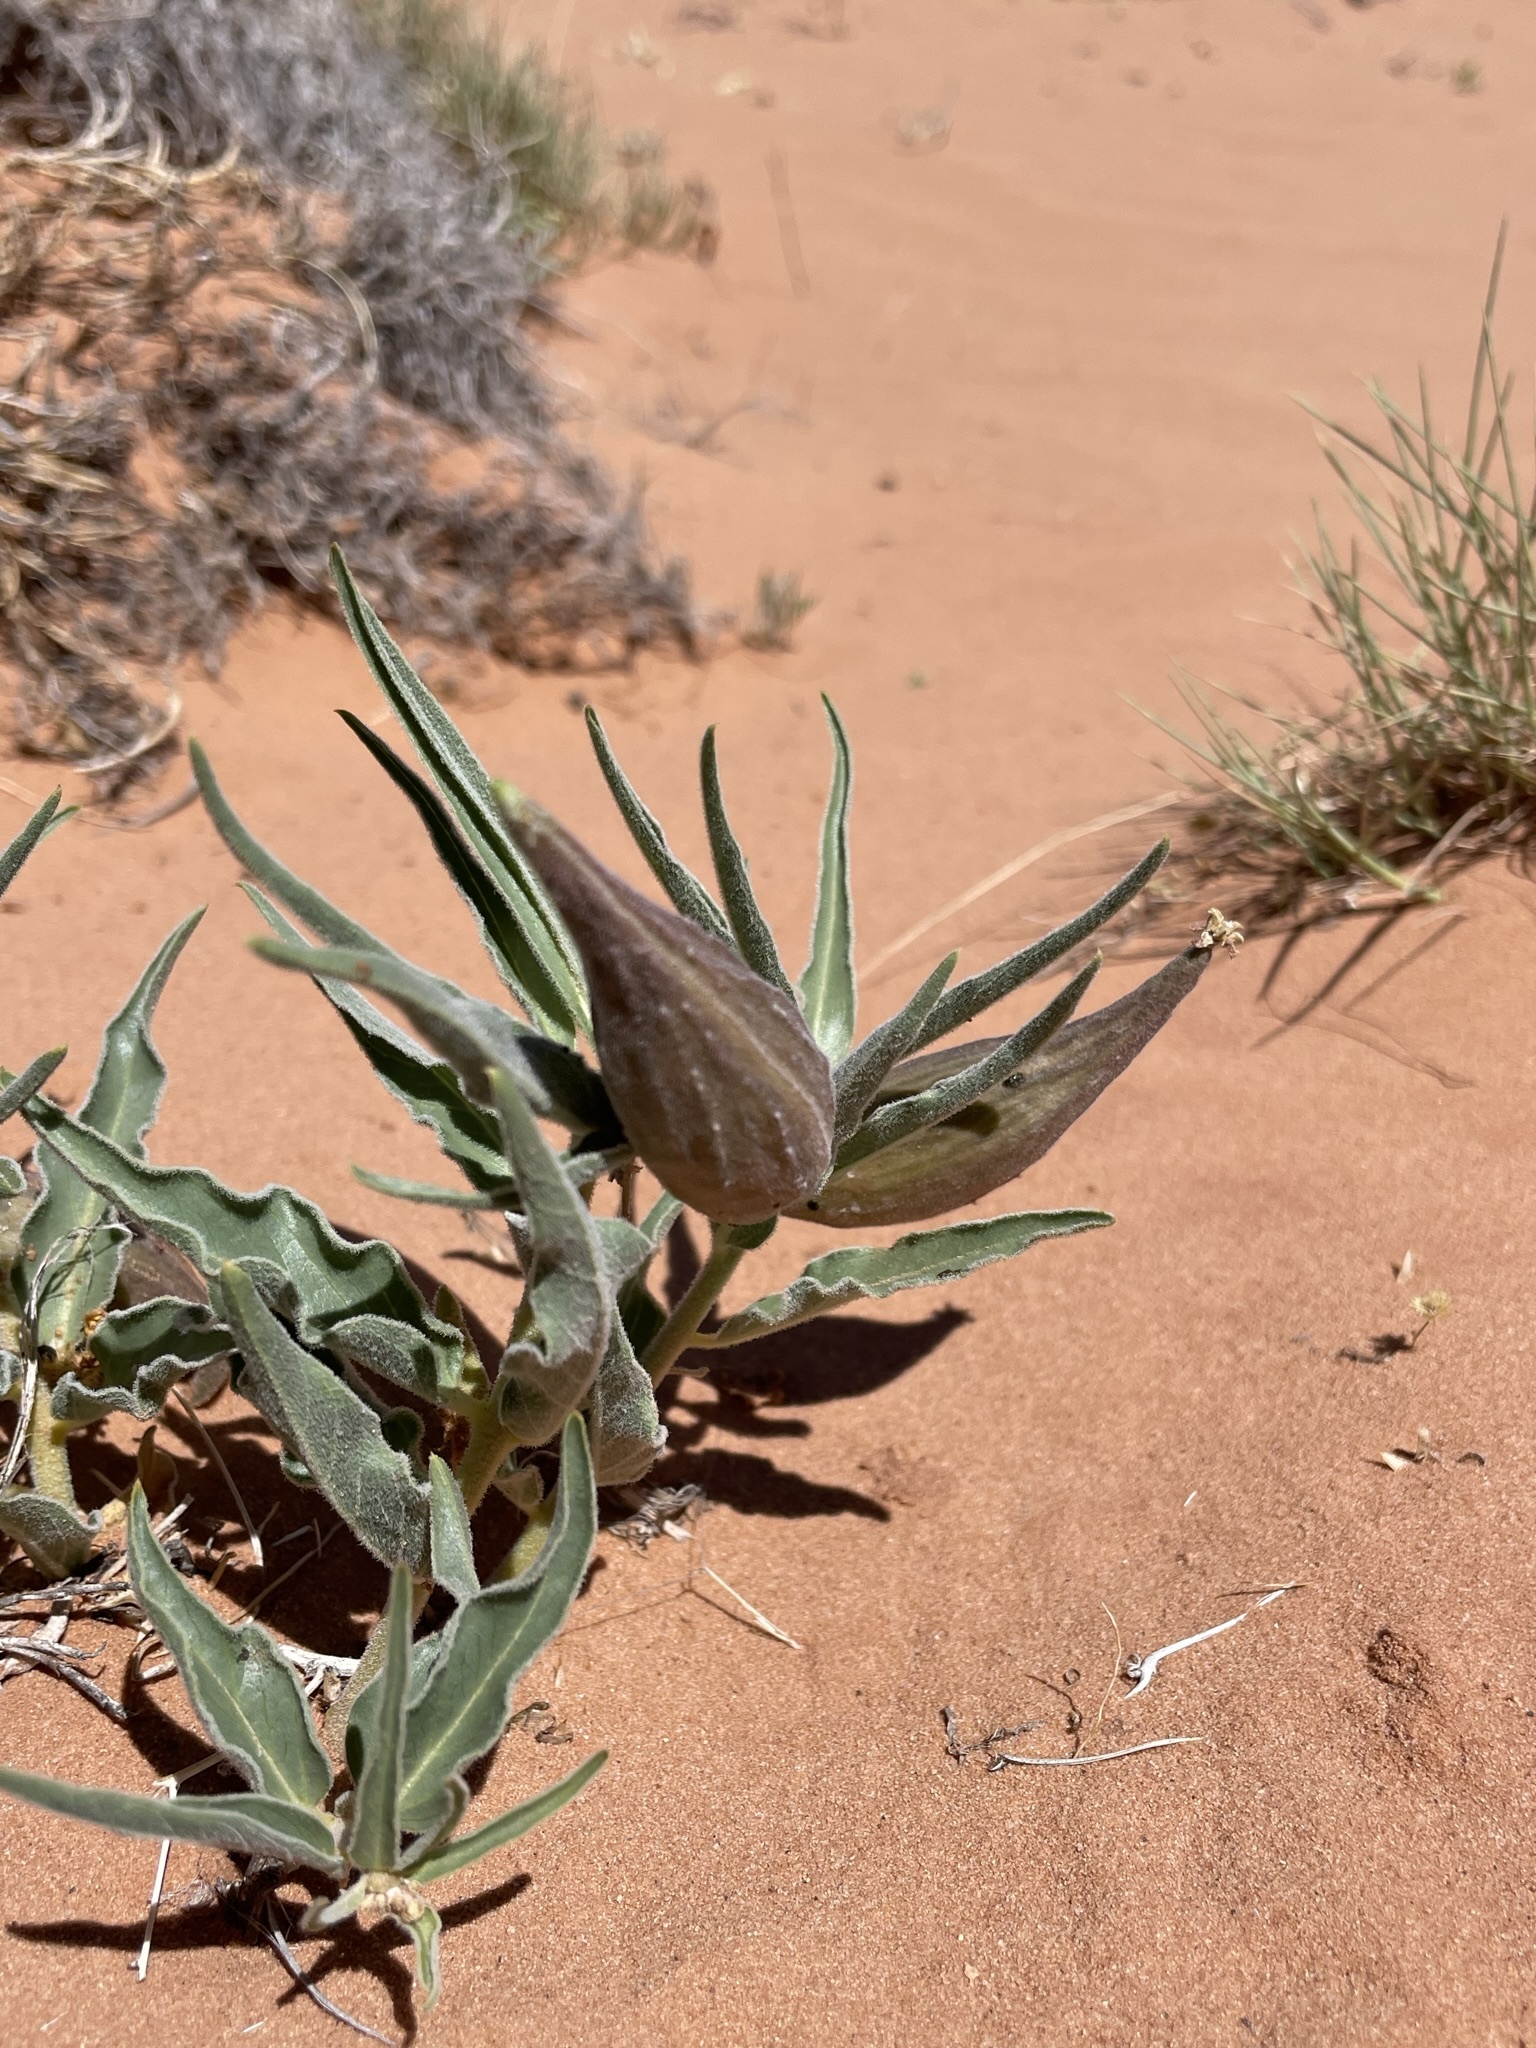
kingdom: Plantae
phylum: Tracheophyta
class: Magnoliopsida
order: Gentianales
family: Apocynaceae
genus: Asclepias
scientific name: Asclepias involucrata
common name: Dwarf milkweed
